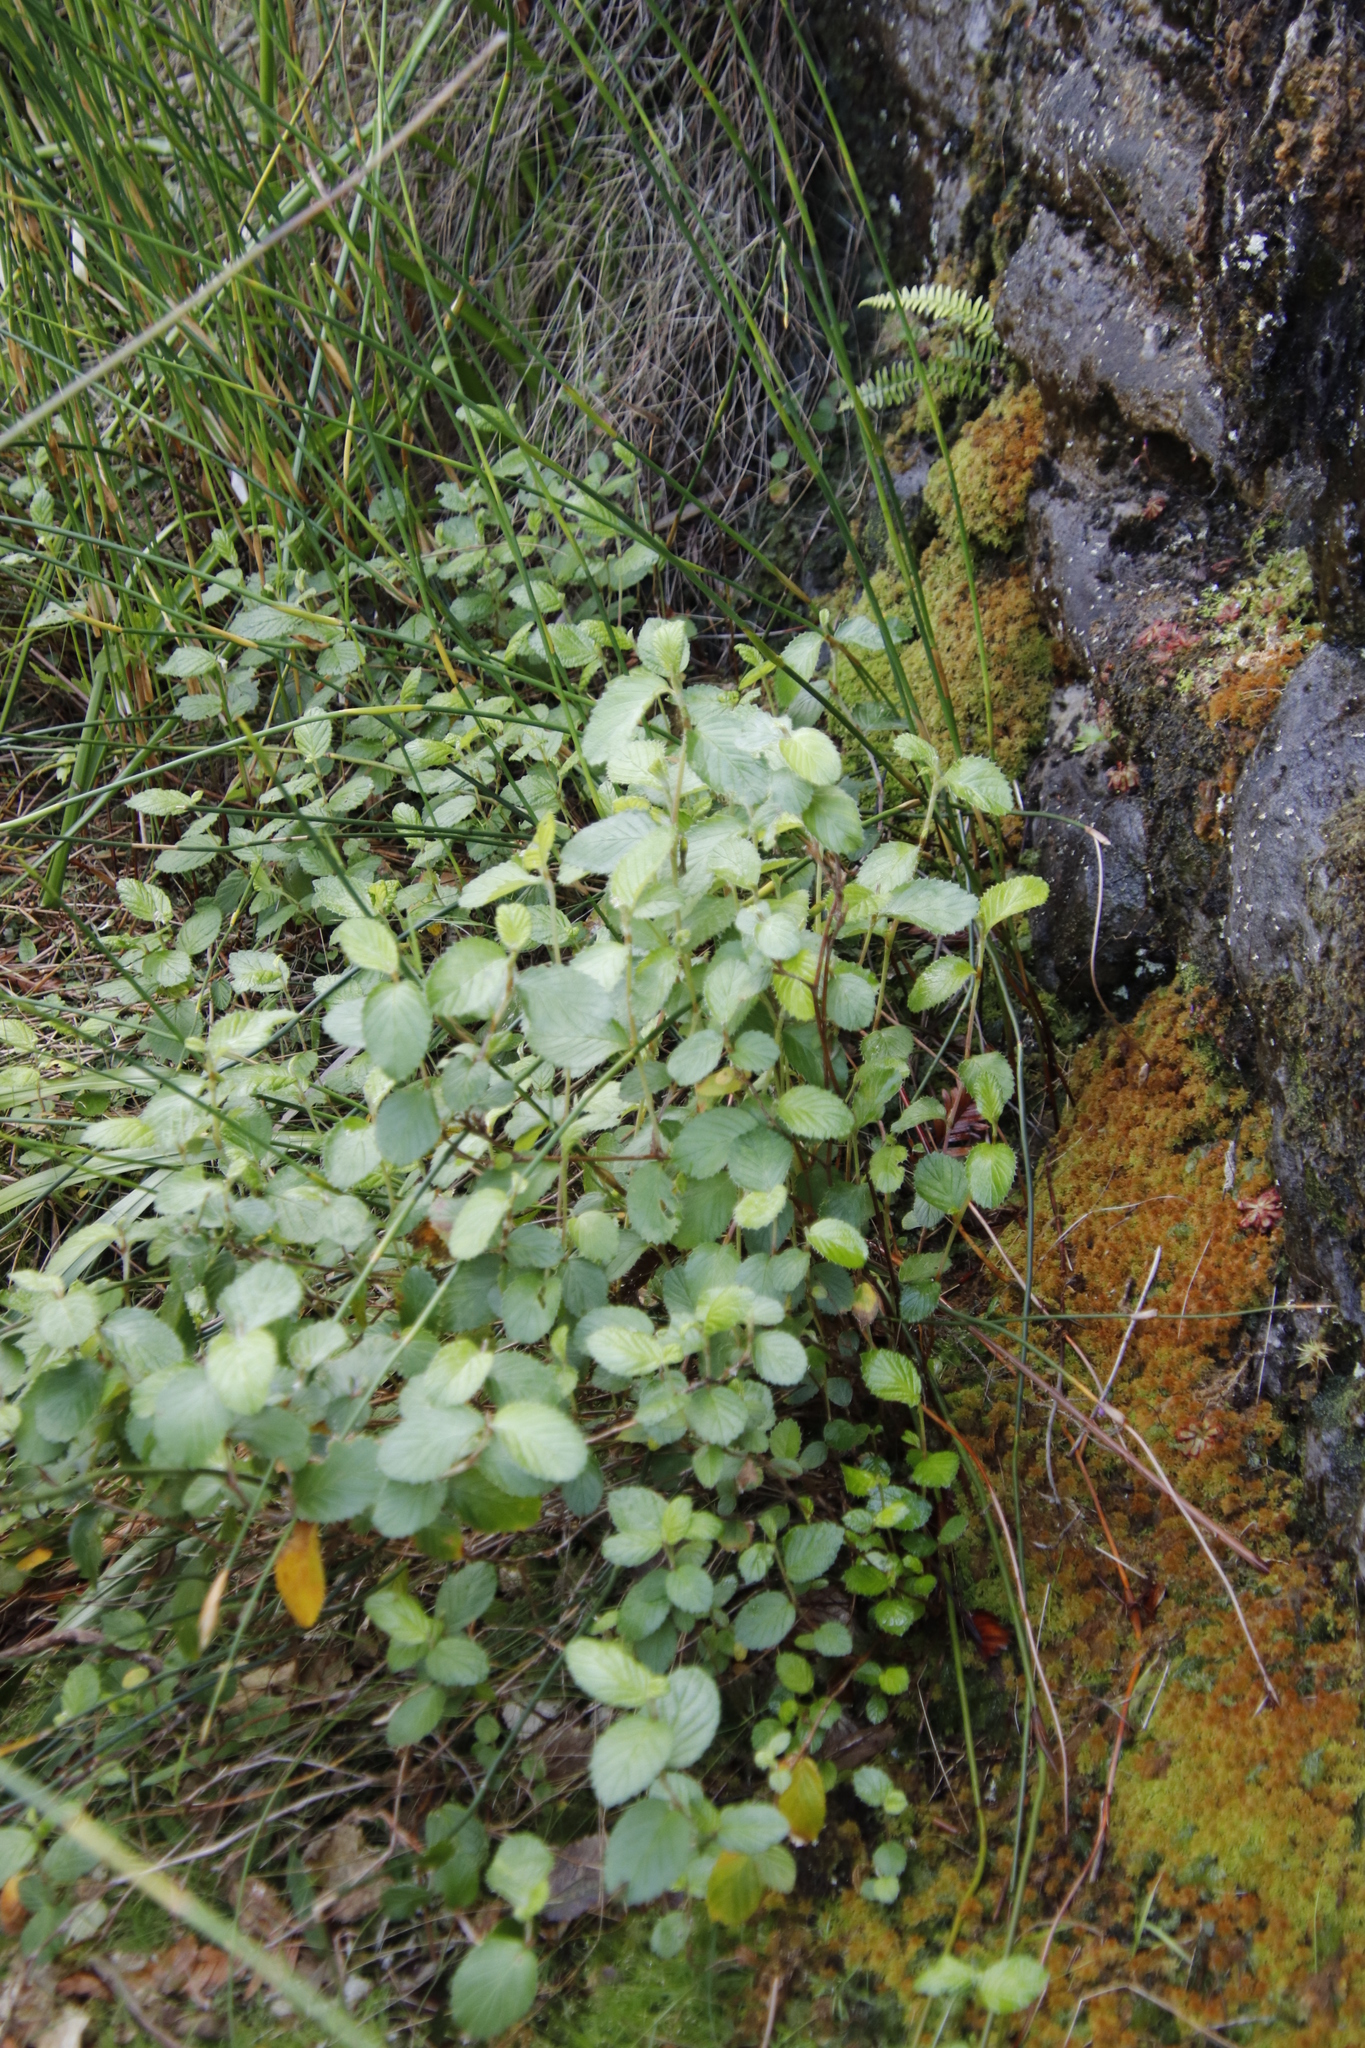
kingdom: Plantae
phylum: Tracheophyta
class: Magnoliopsida
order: Rosales
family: Rosaceae
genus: Cliffortia
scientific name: Cliffortia odorata
